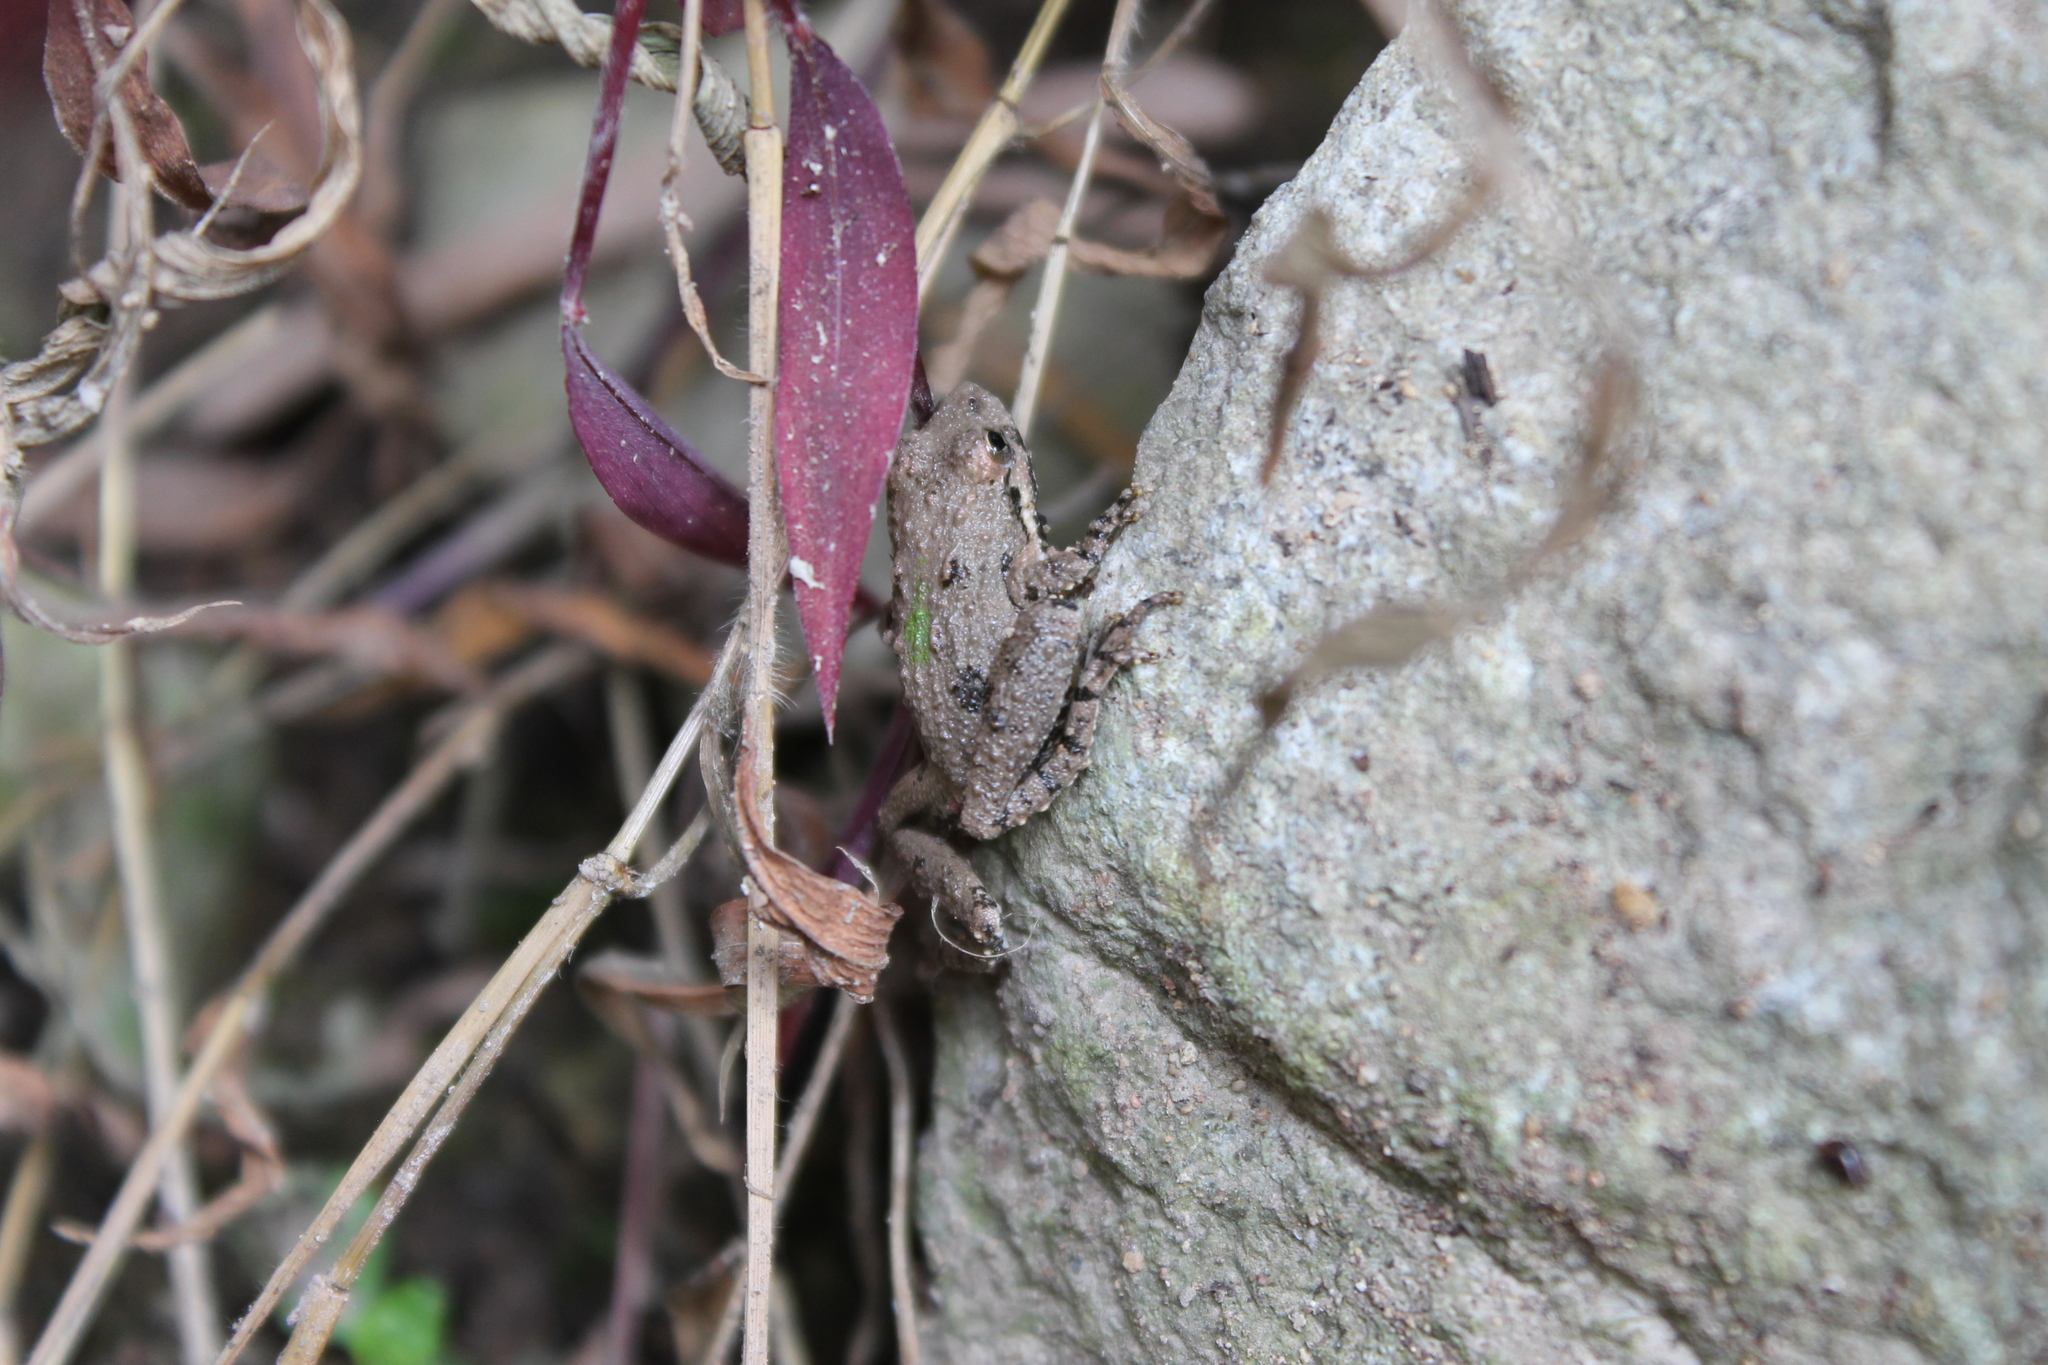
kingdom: Animalia
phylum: Chordata
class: Amphibia
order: Anura
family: Hylidae
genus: Acris
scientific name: Acris crepitans
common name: Northern cricket frog
